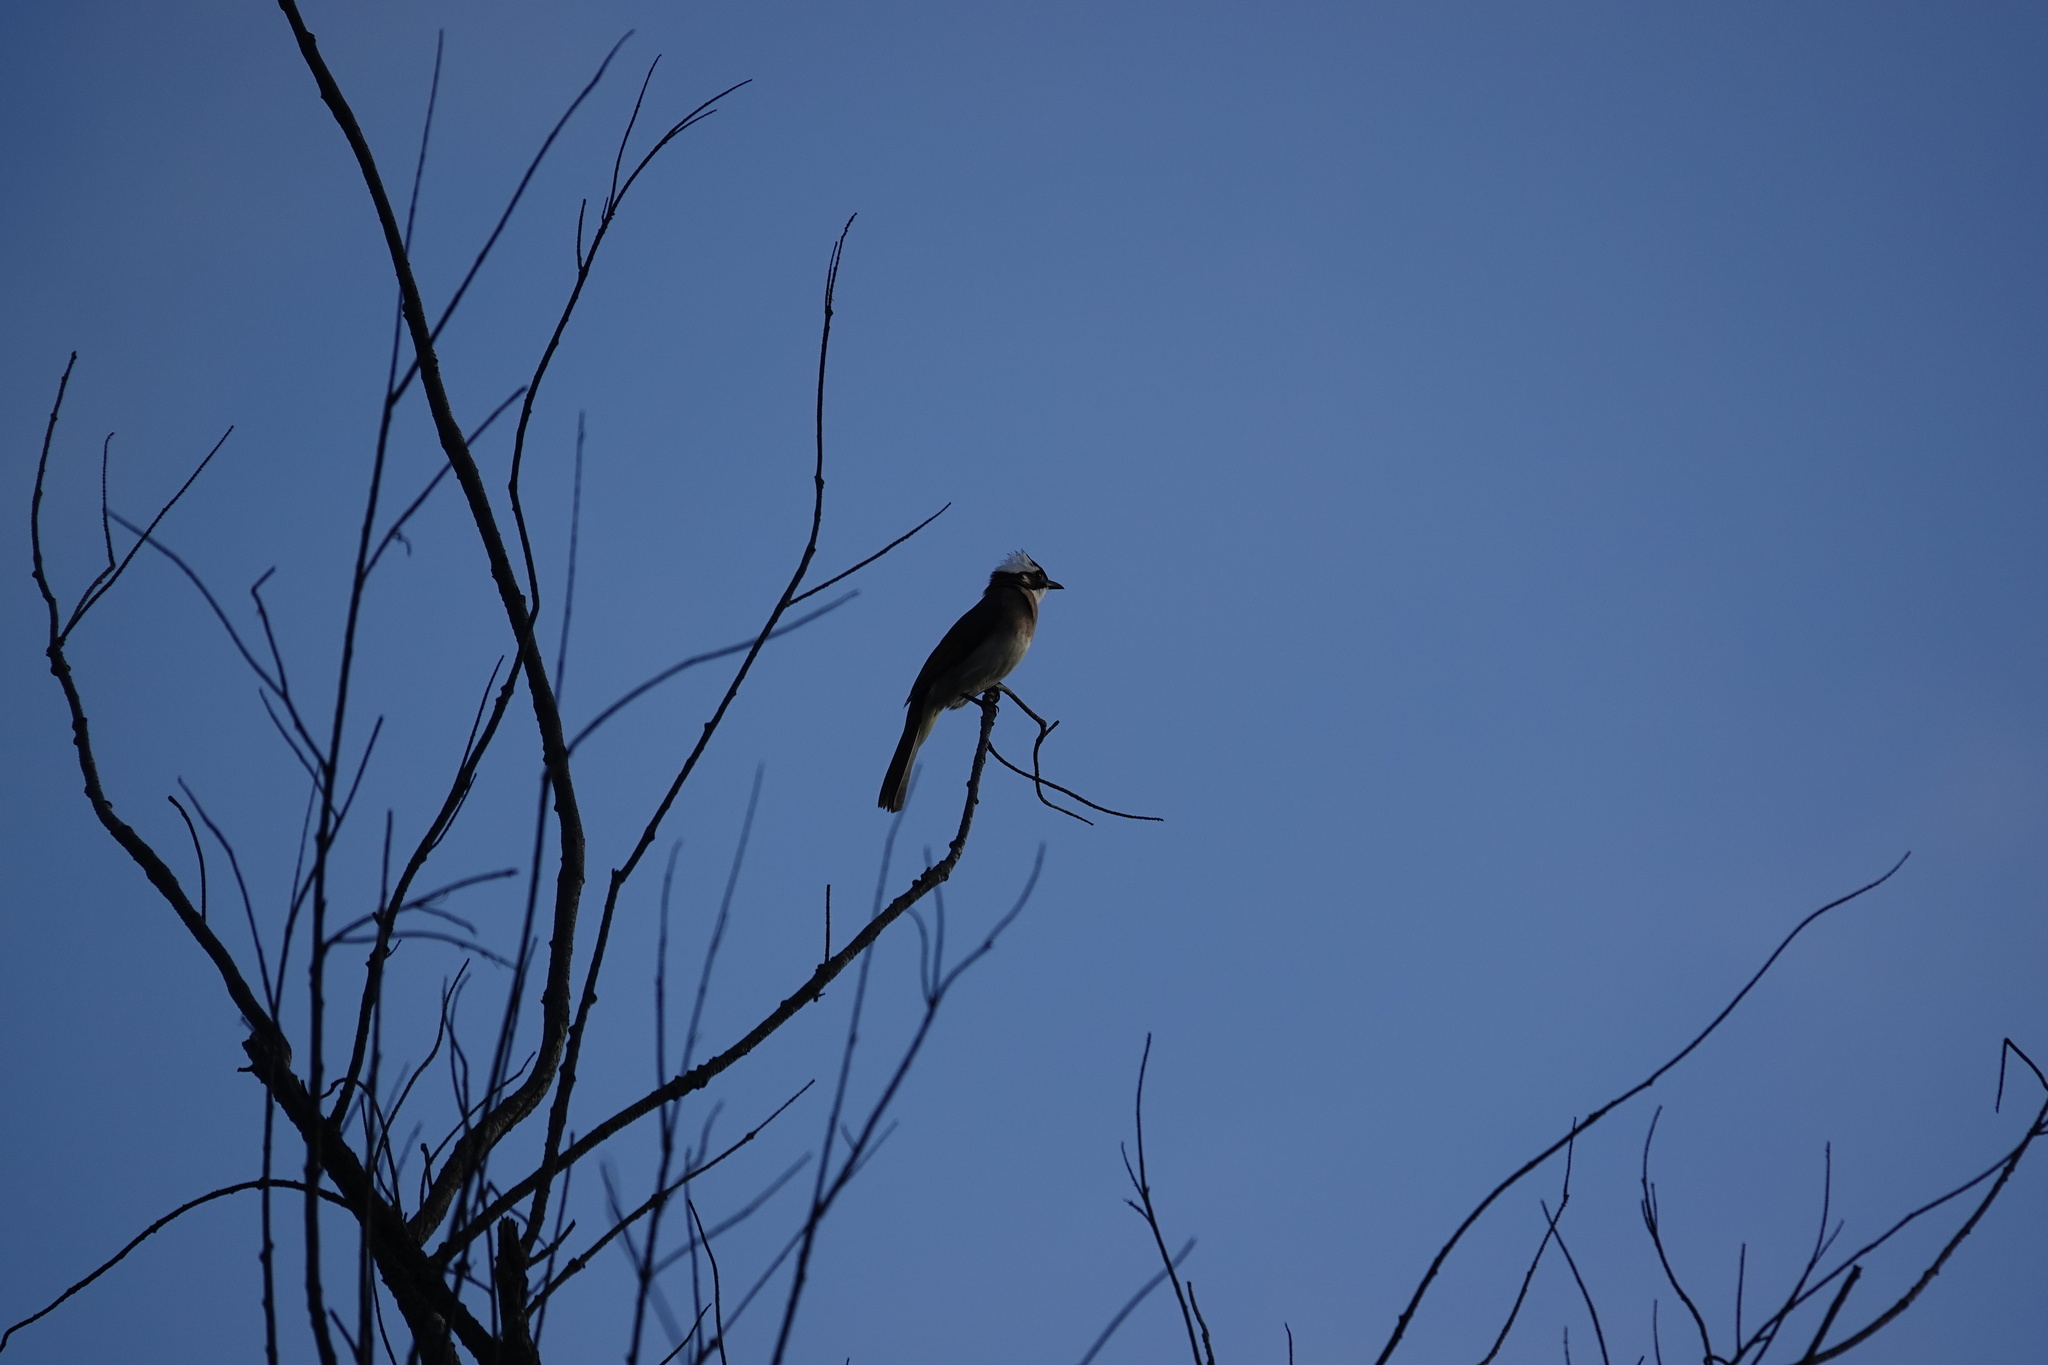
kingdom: Animalia
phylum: Chordata
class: Aves
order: Passeriformes
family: Pycnonotidae
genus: Pycnonotus
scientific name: Pycnonotus sinensis
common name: Light-vented bulbul
